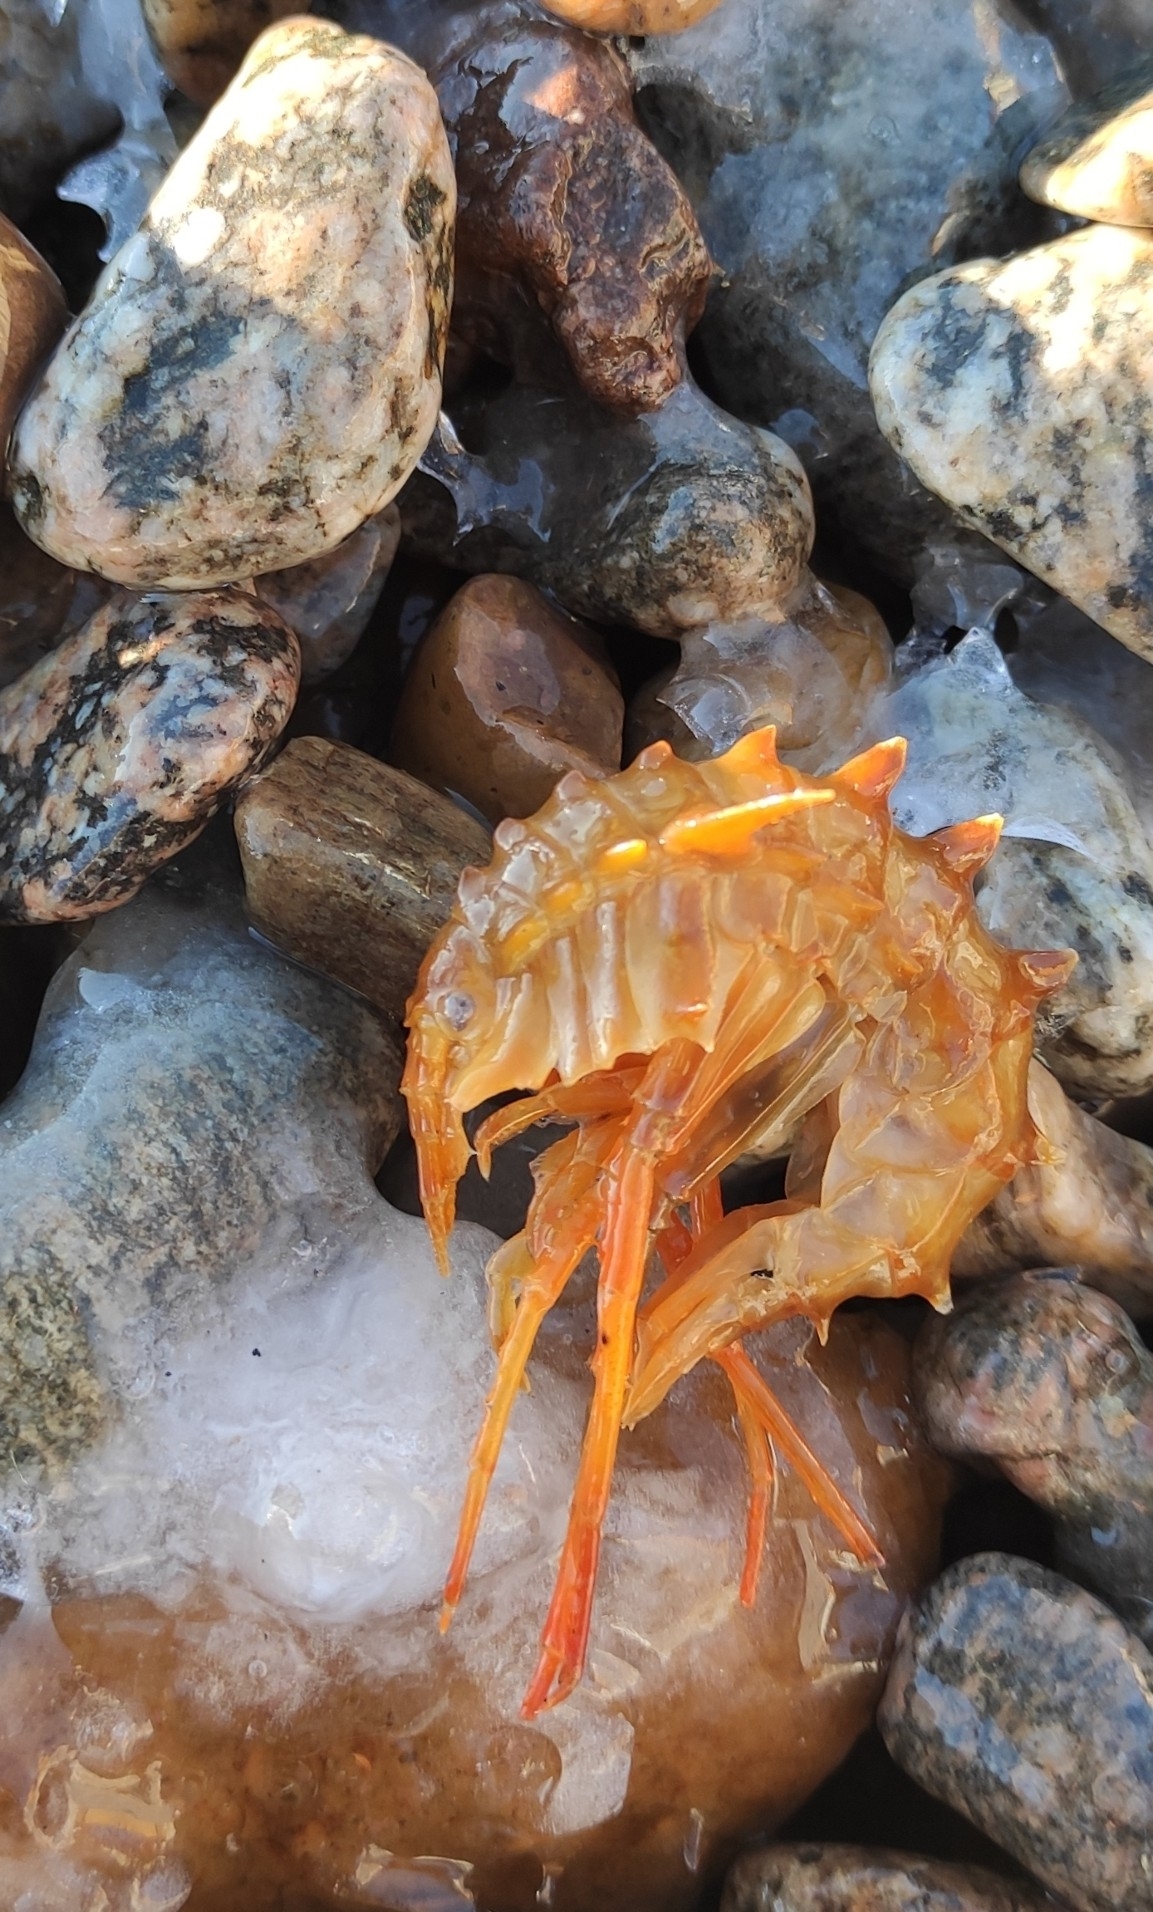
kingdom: Animalia
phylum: Arthropoda
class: Malacostraca
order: Amphipoda
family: Acanthogammaridae
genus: Acanthogammarus
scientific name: Acanthogammarus victorii
